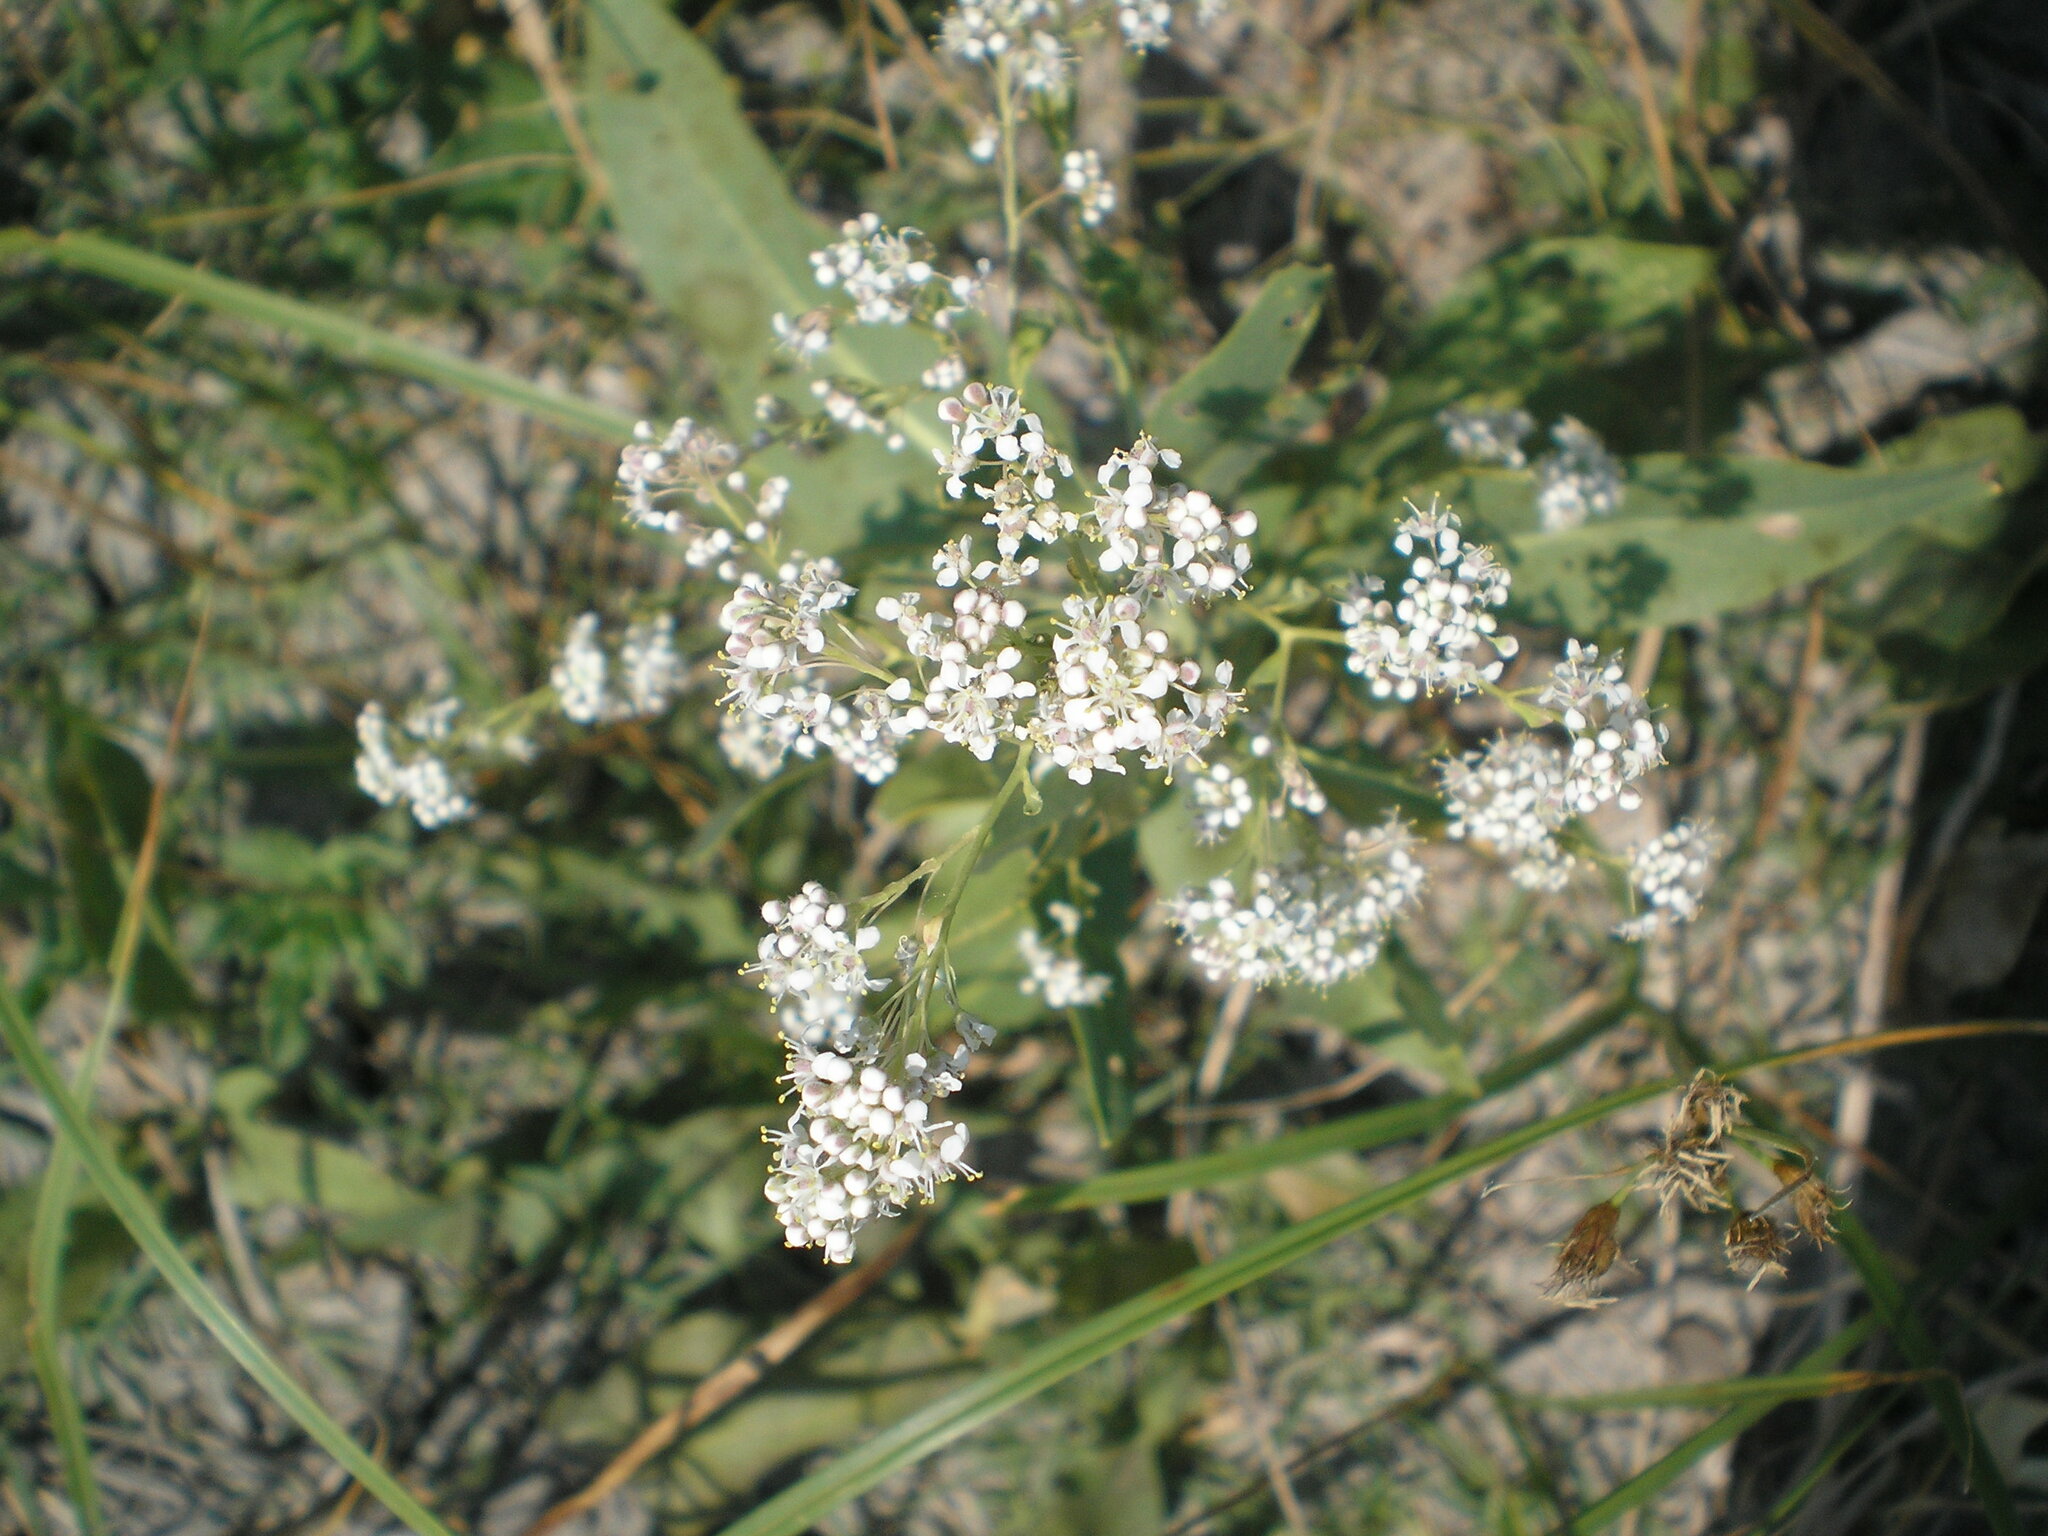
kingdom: Plantae
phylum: Tracheophyta
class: Magnoliopsida
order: Brassicales
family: Brassicaceae
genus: Lepidium
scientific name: Lepidium latifolium
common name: Dittander
